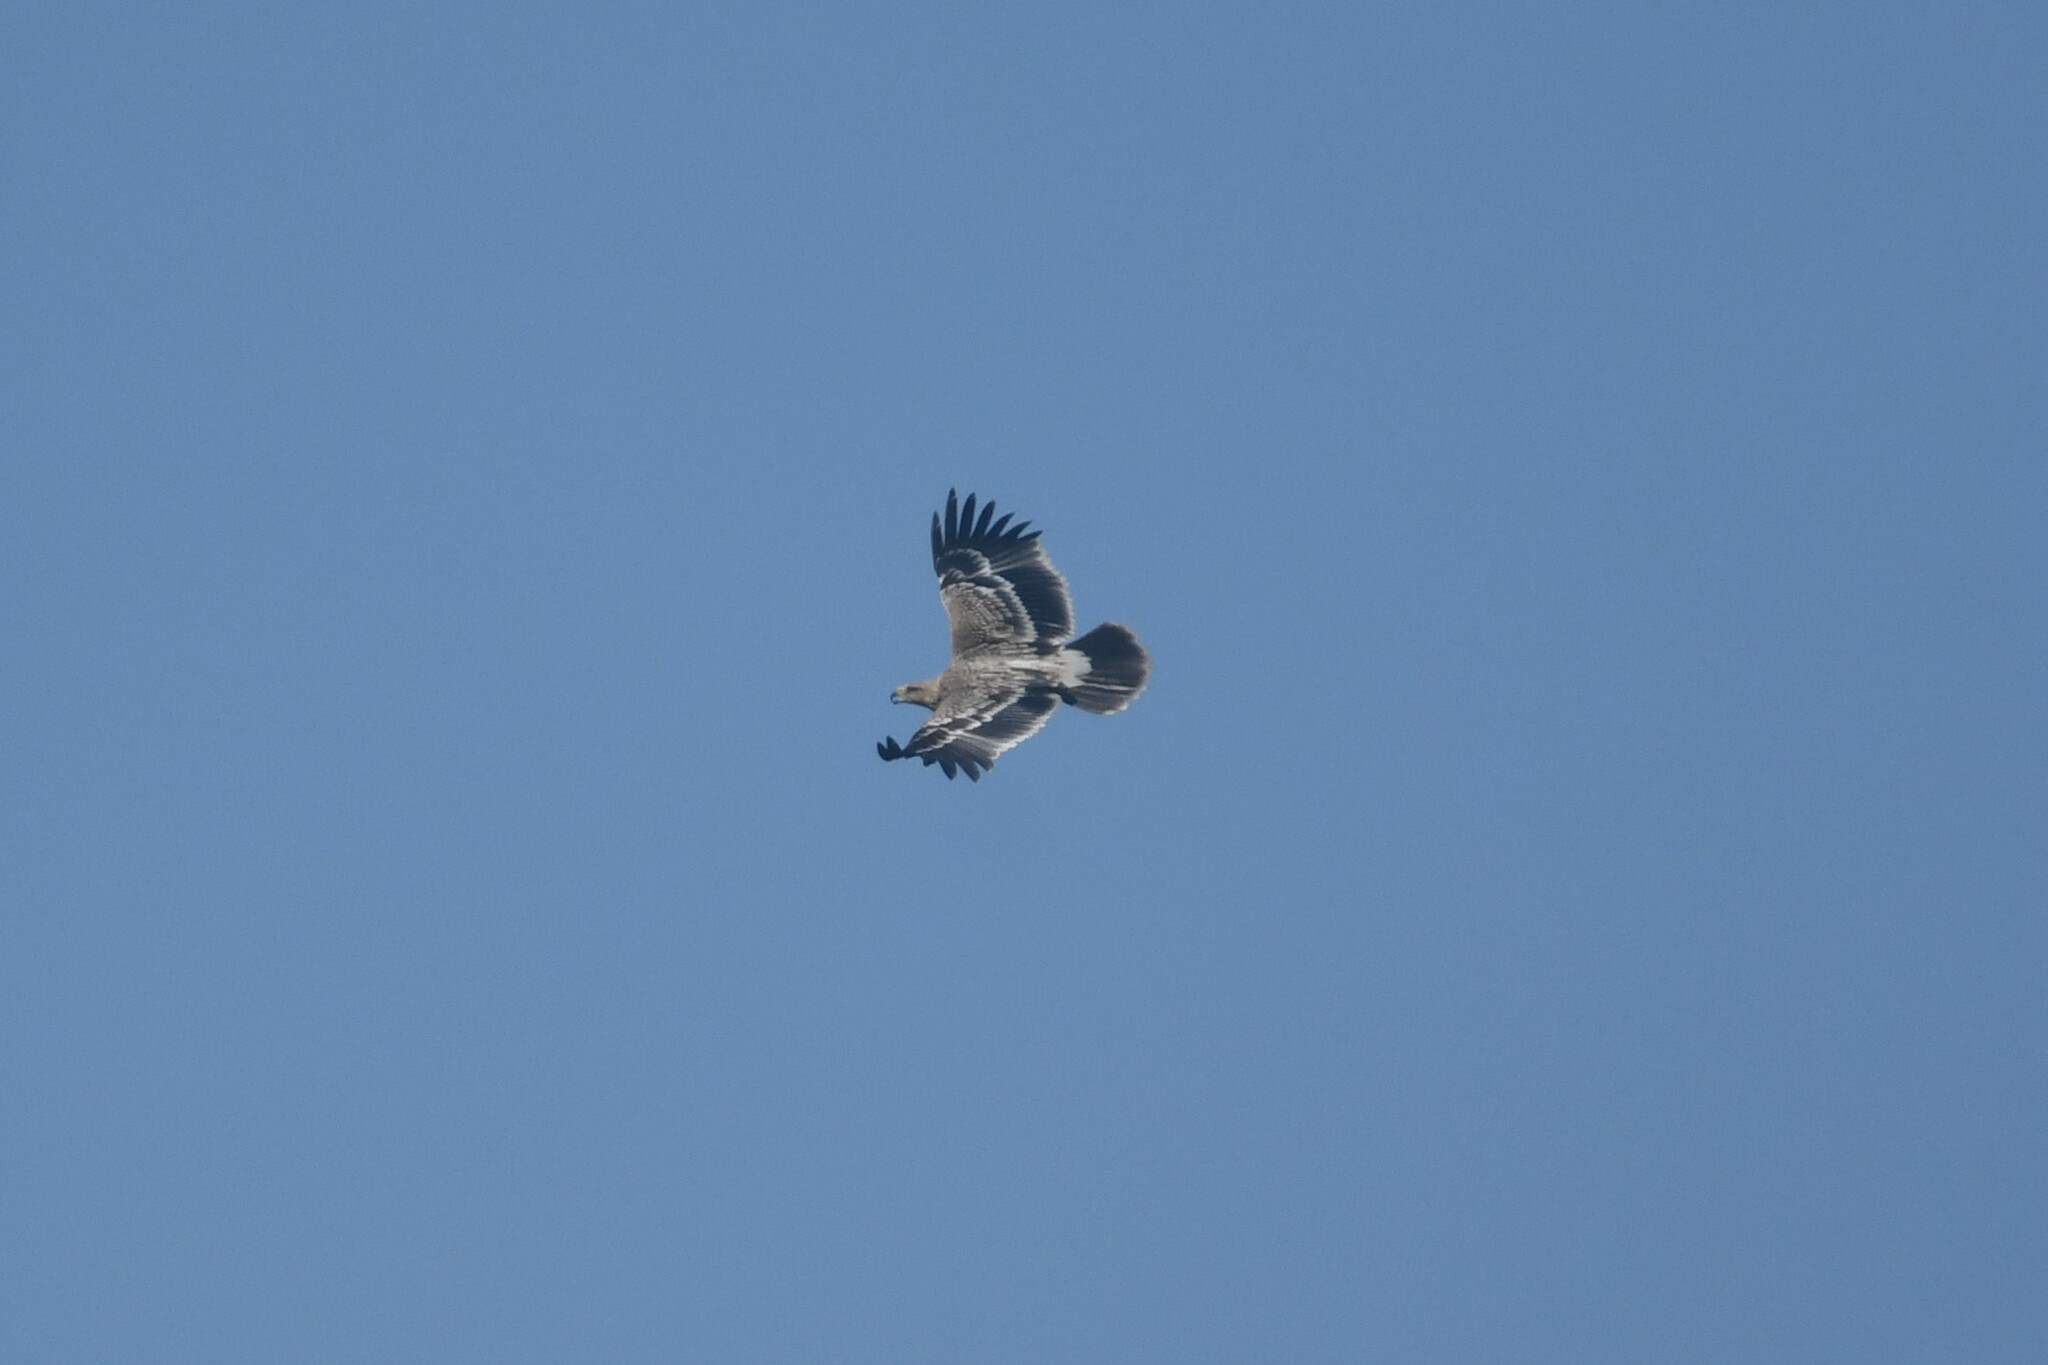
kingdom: Animalia
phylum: Chordata
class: Aves
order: Accipitriformes
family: Accipitridae
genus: Aquila
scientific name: Aquila heliaca
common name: Eastern imperial eagle
